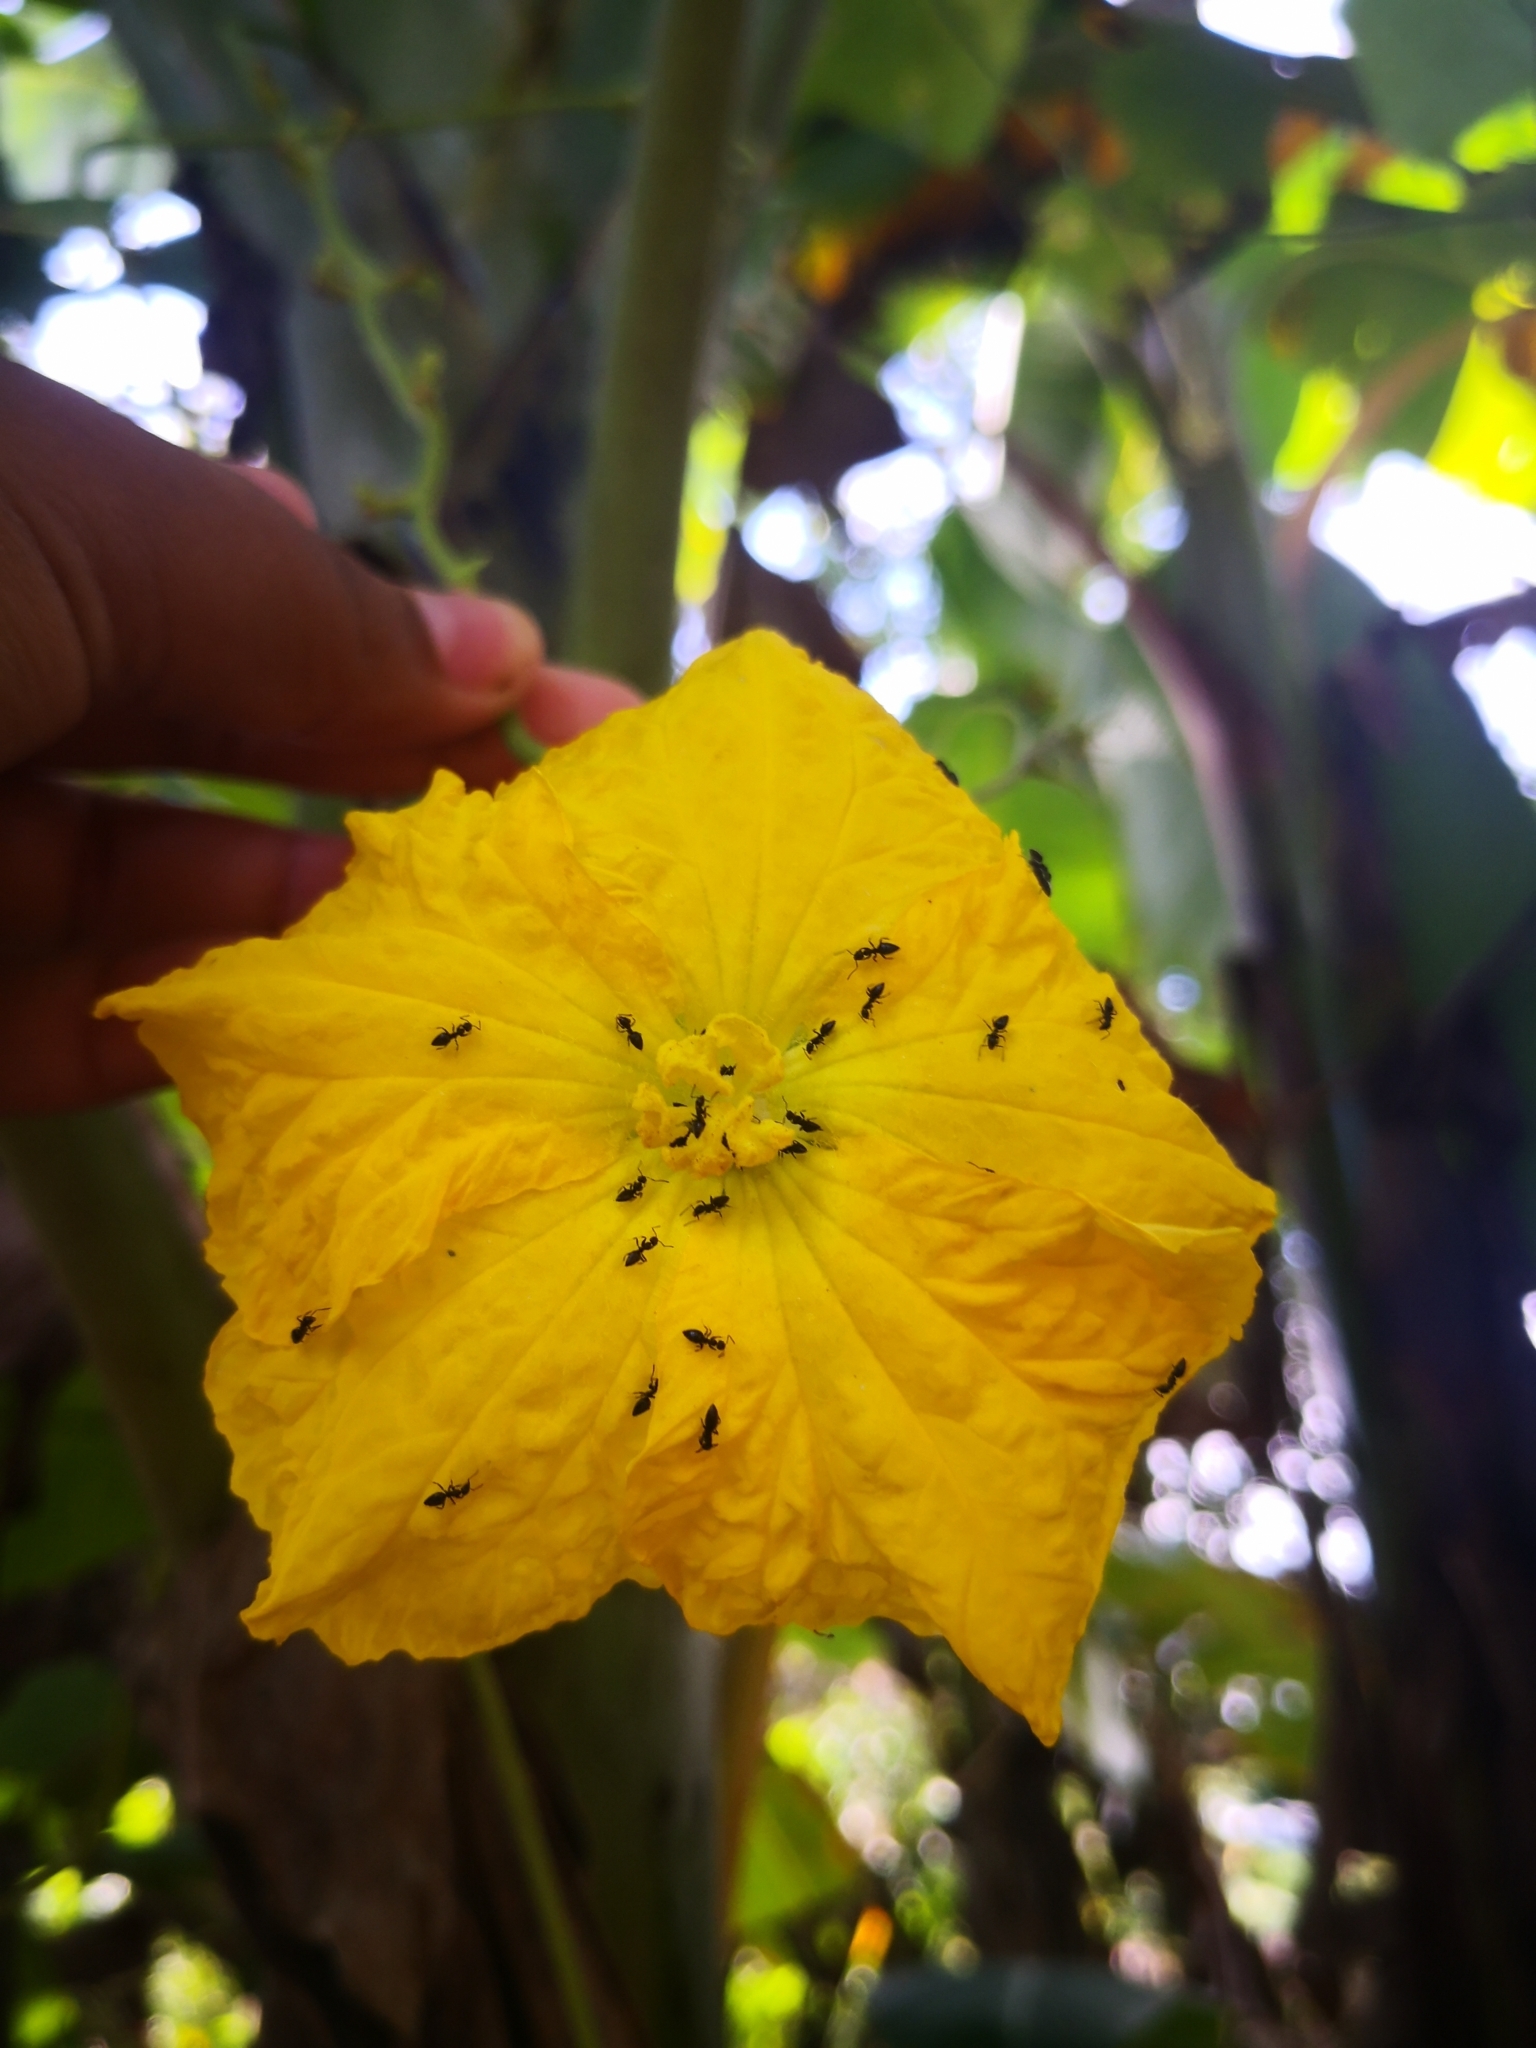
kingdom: Plantae
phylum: Tracheophyta
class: Magnoliopsida
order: Cucurbitales
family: Cucurbitaceae
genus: Luffa
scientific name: Luffa aegyptiaca
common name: Sponge gourd
